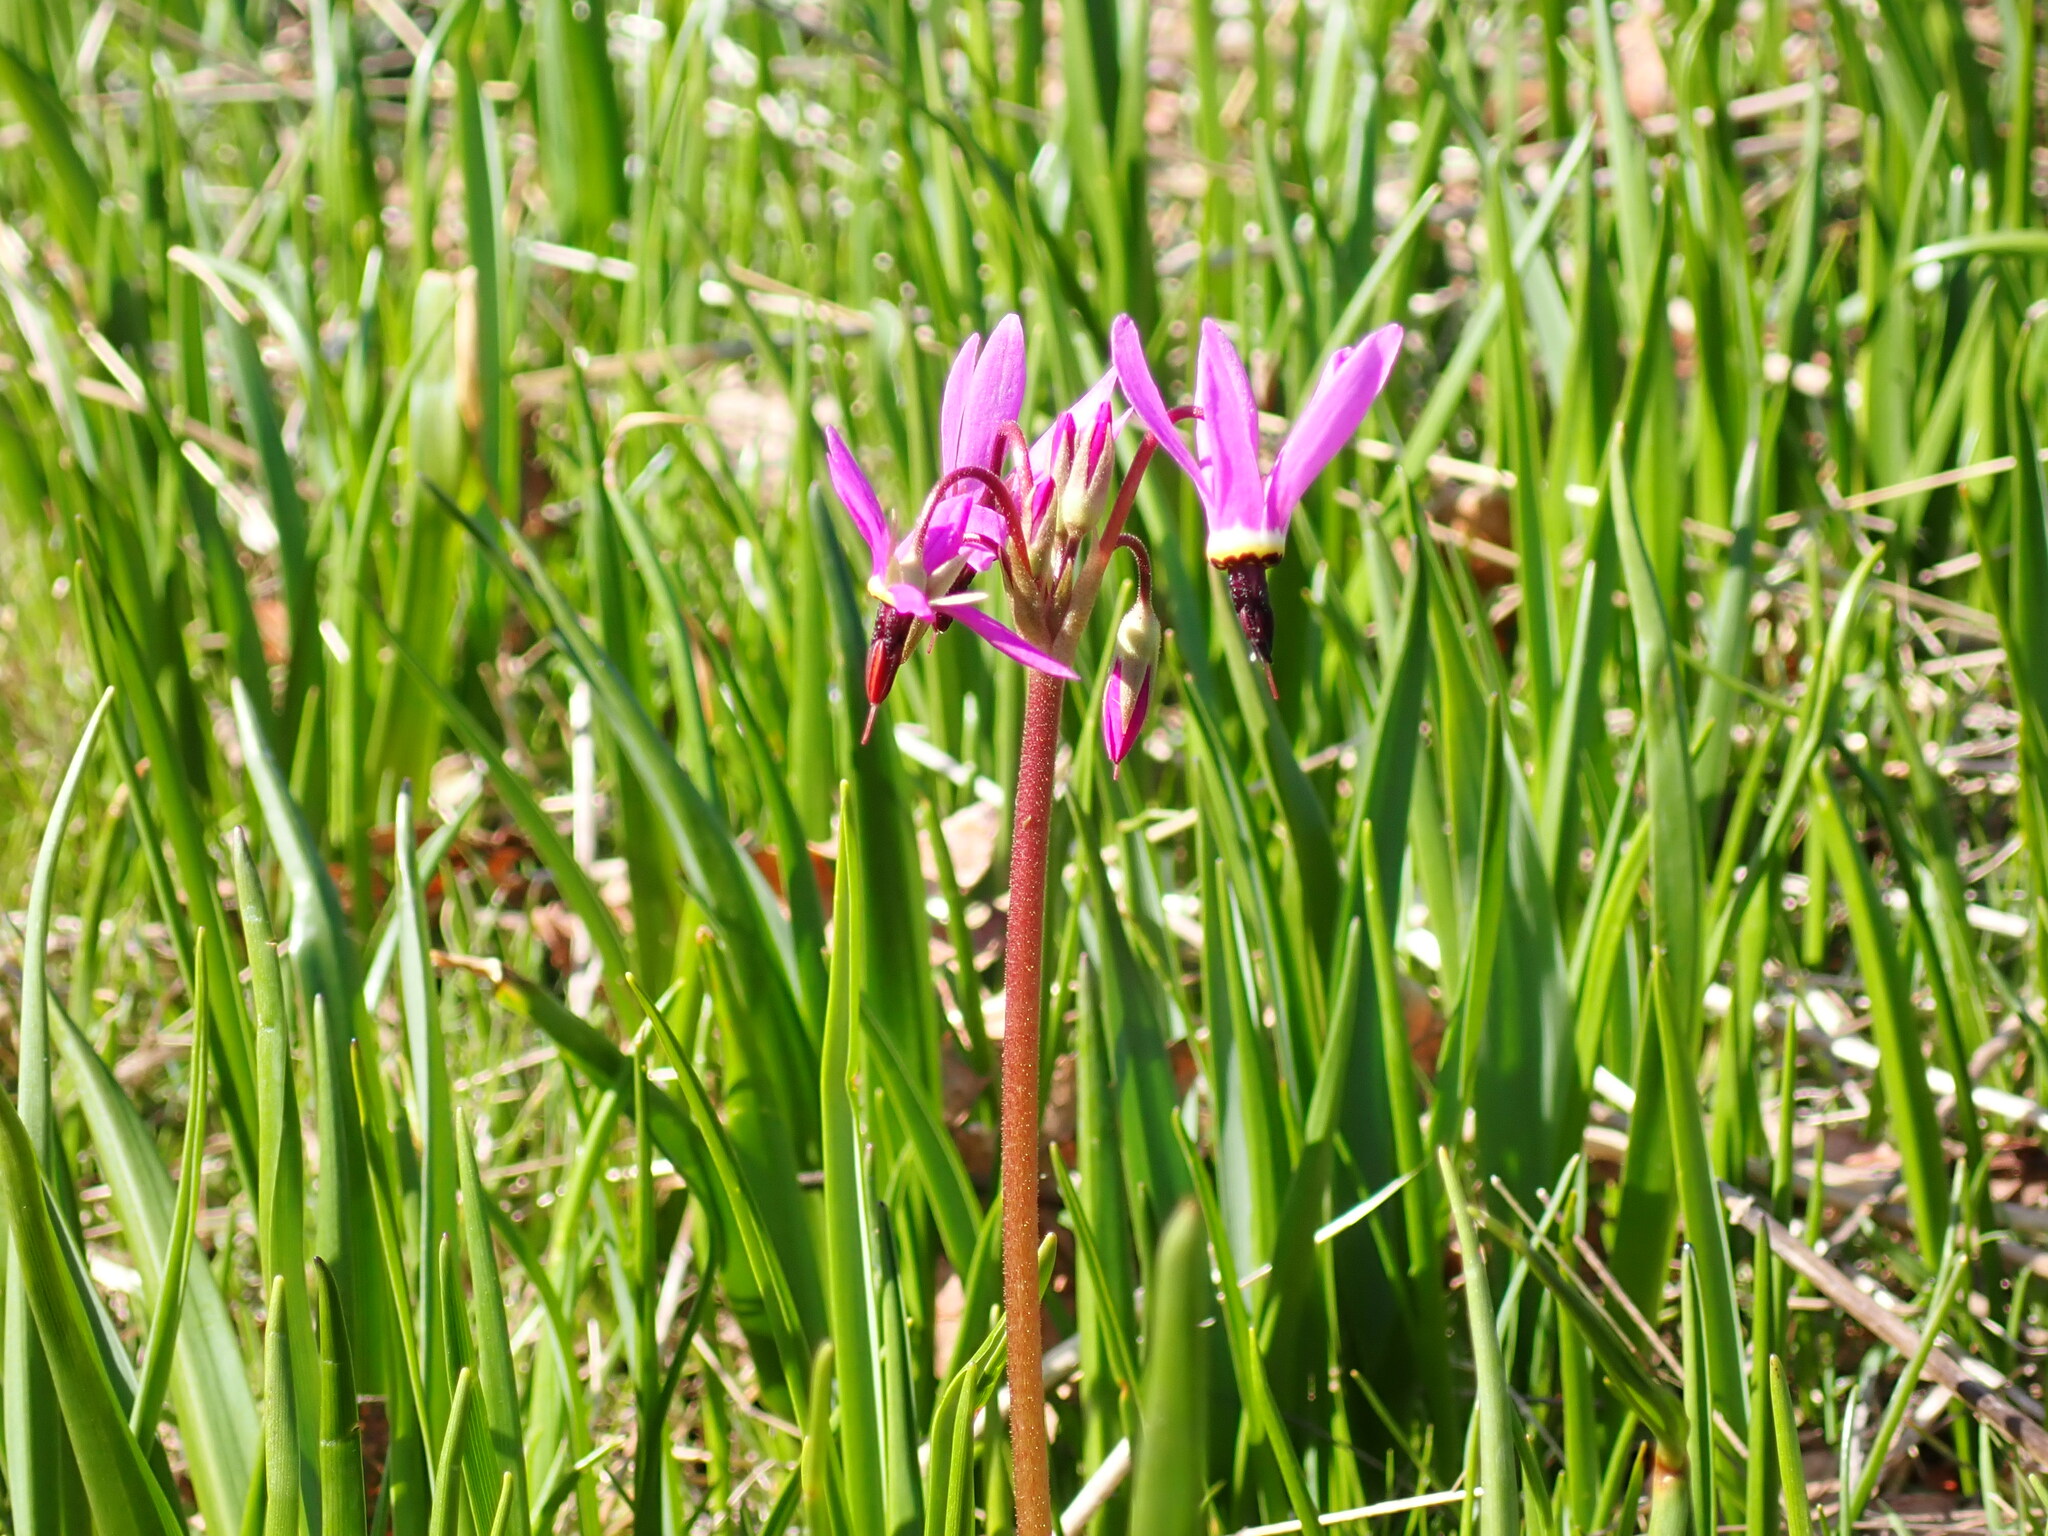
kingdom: Plantae
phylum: Tracheophyta
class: Magnoliopsida
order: Ericales
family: Primulaceae
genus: Dodecatheon
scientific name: Dodecatheon hendersonii
